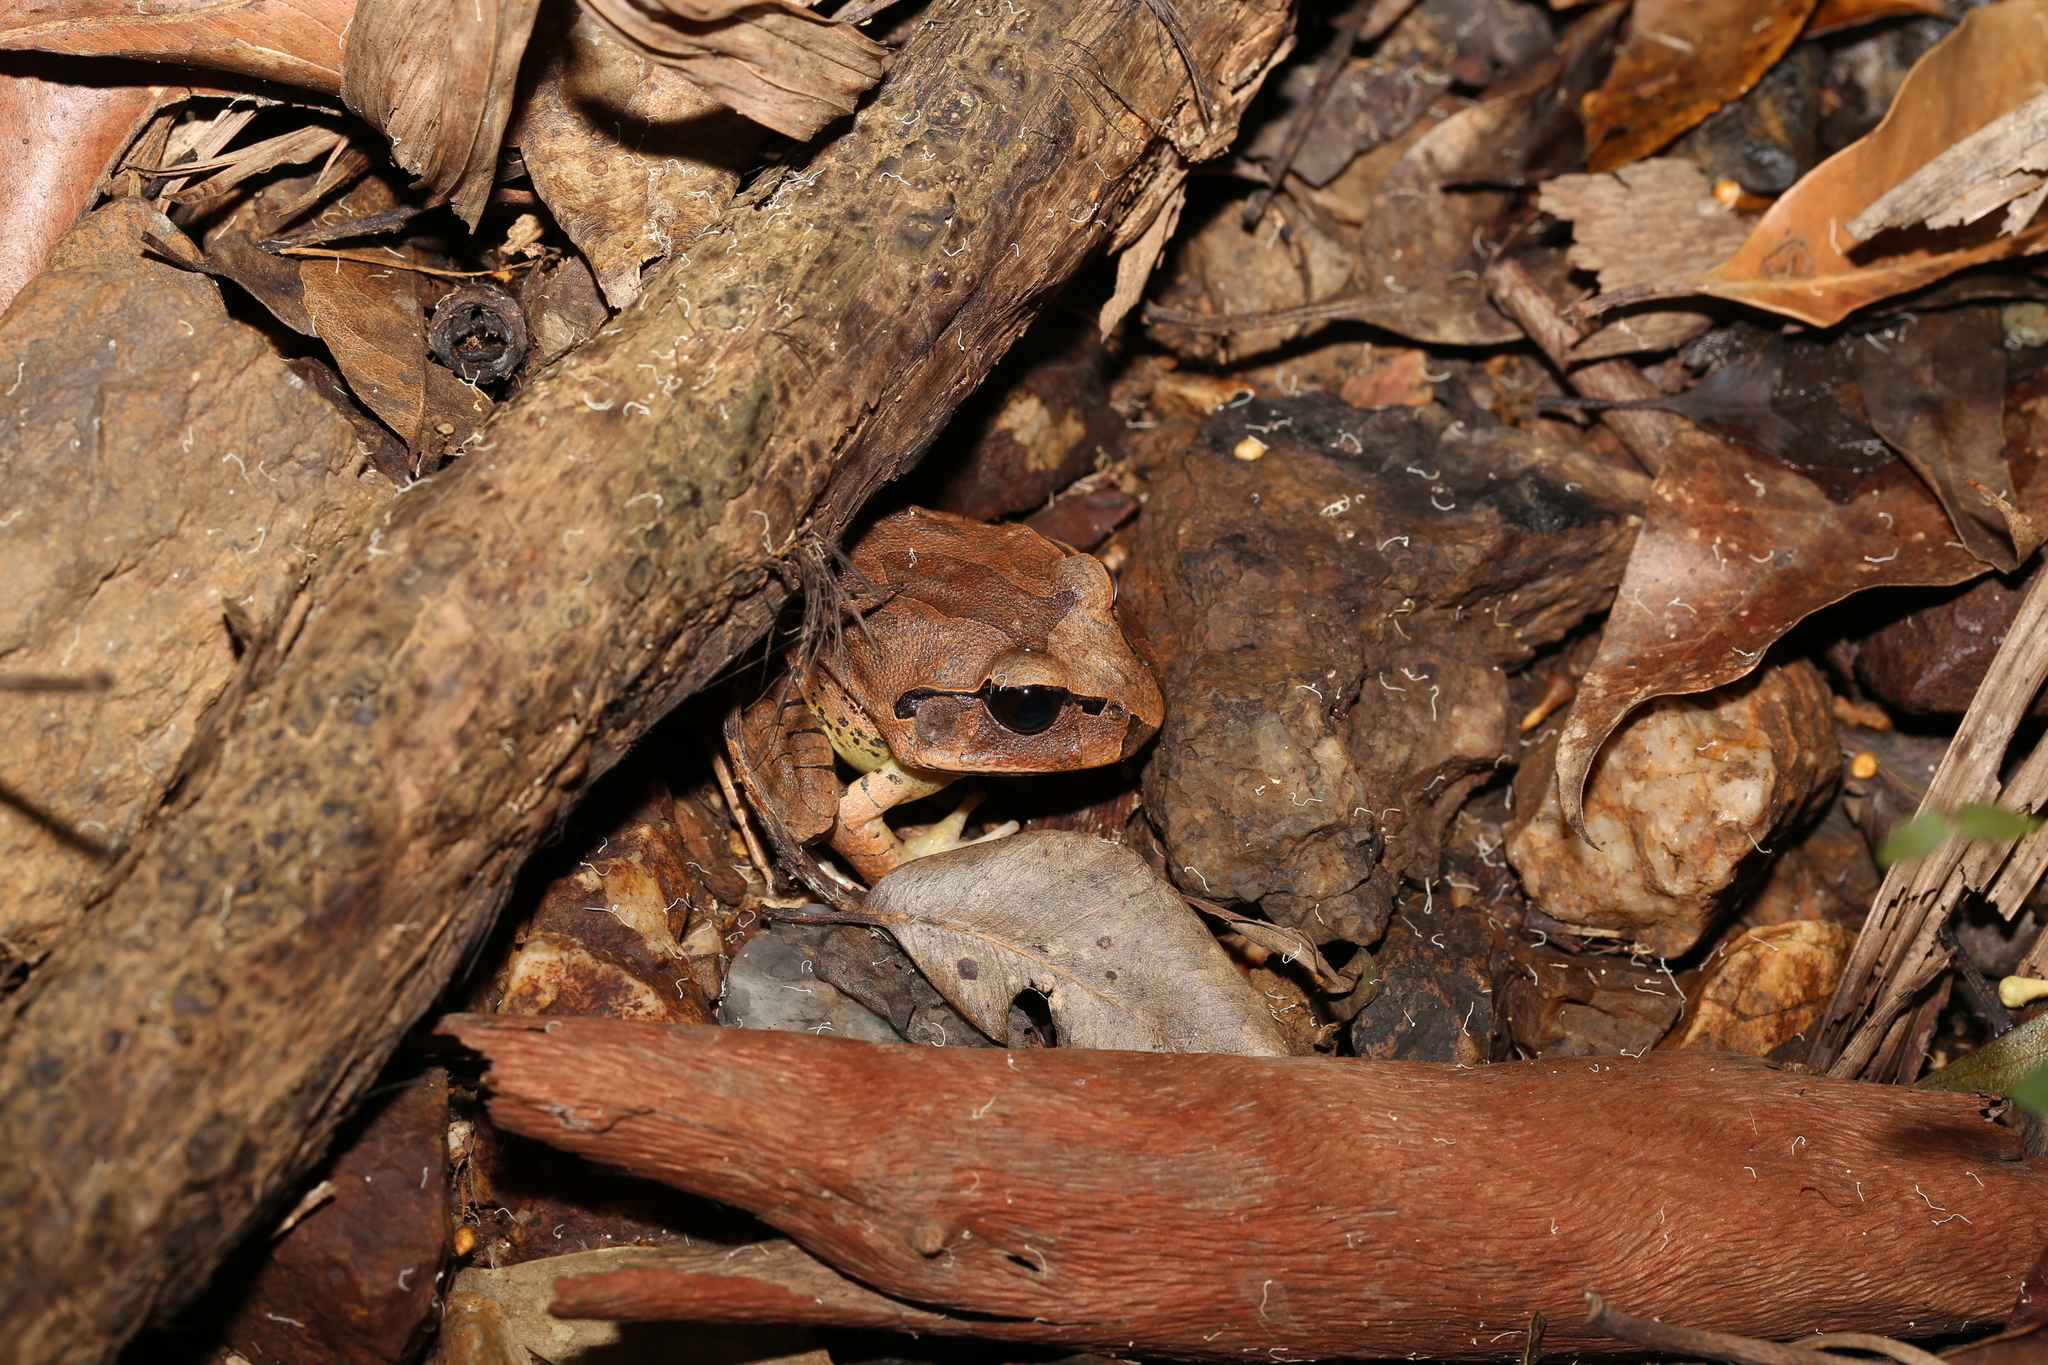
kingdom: Animalia
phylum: Chordata
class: Amphibia
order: Anura
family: Myobatrachidae
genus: Mixophyes
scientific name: Mixophyes fasciolatus
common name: Great barred river-frog
